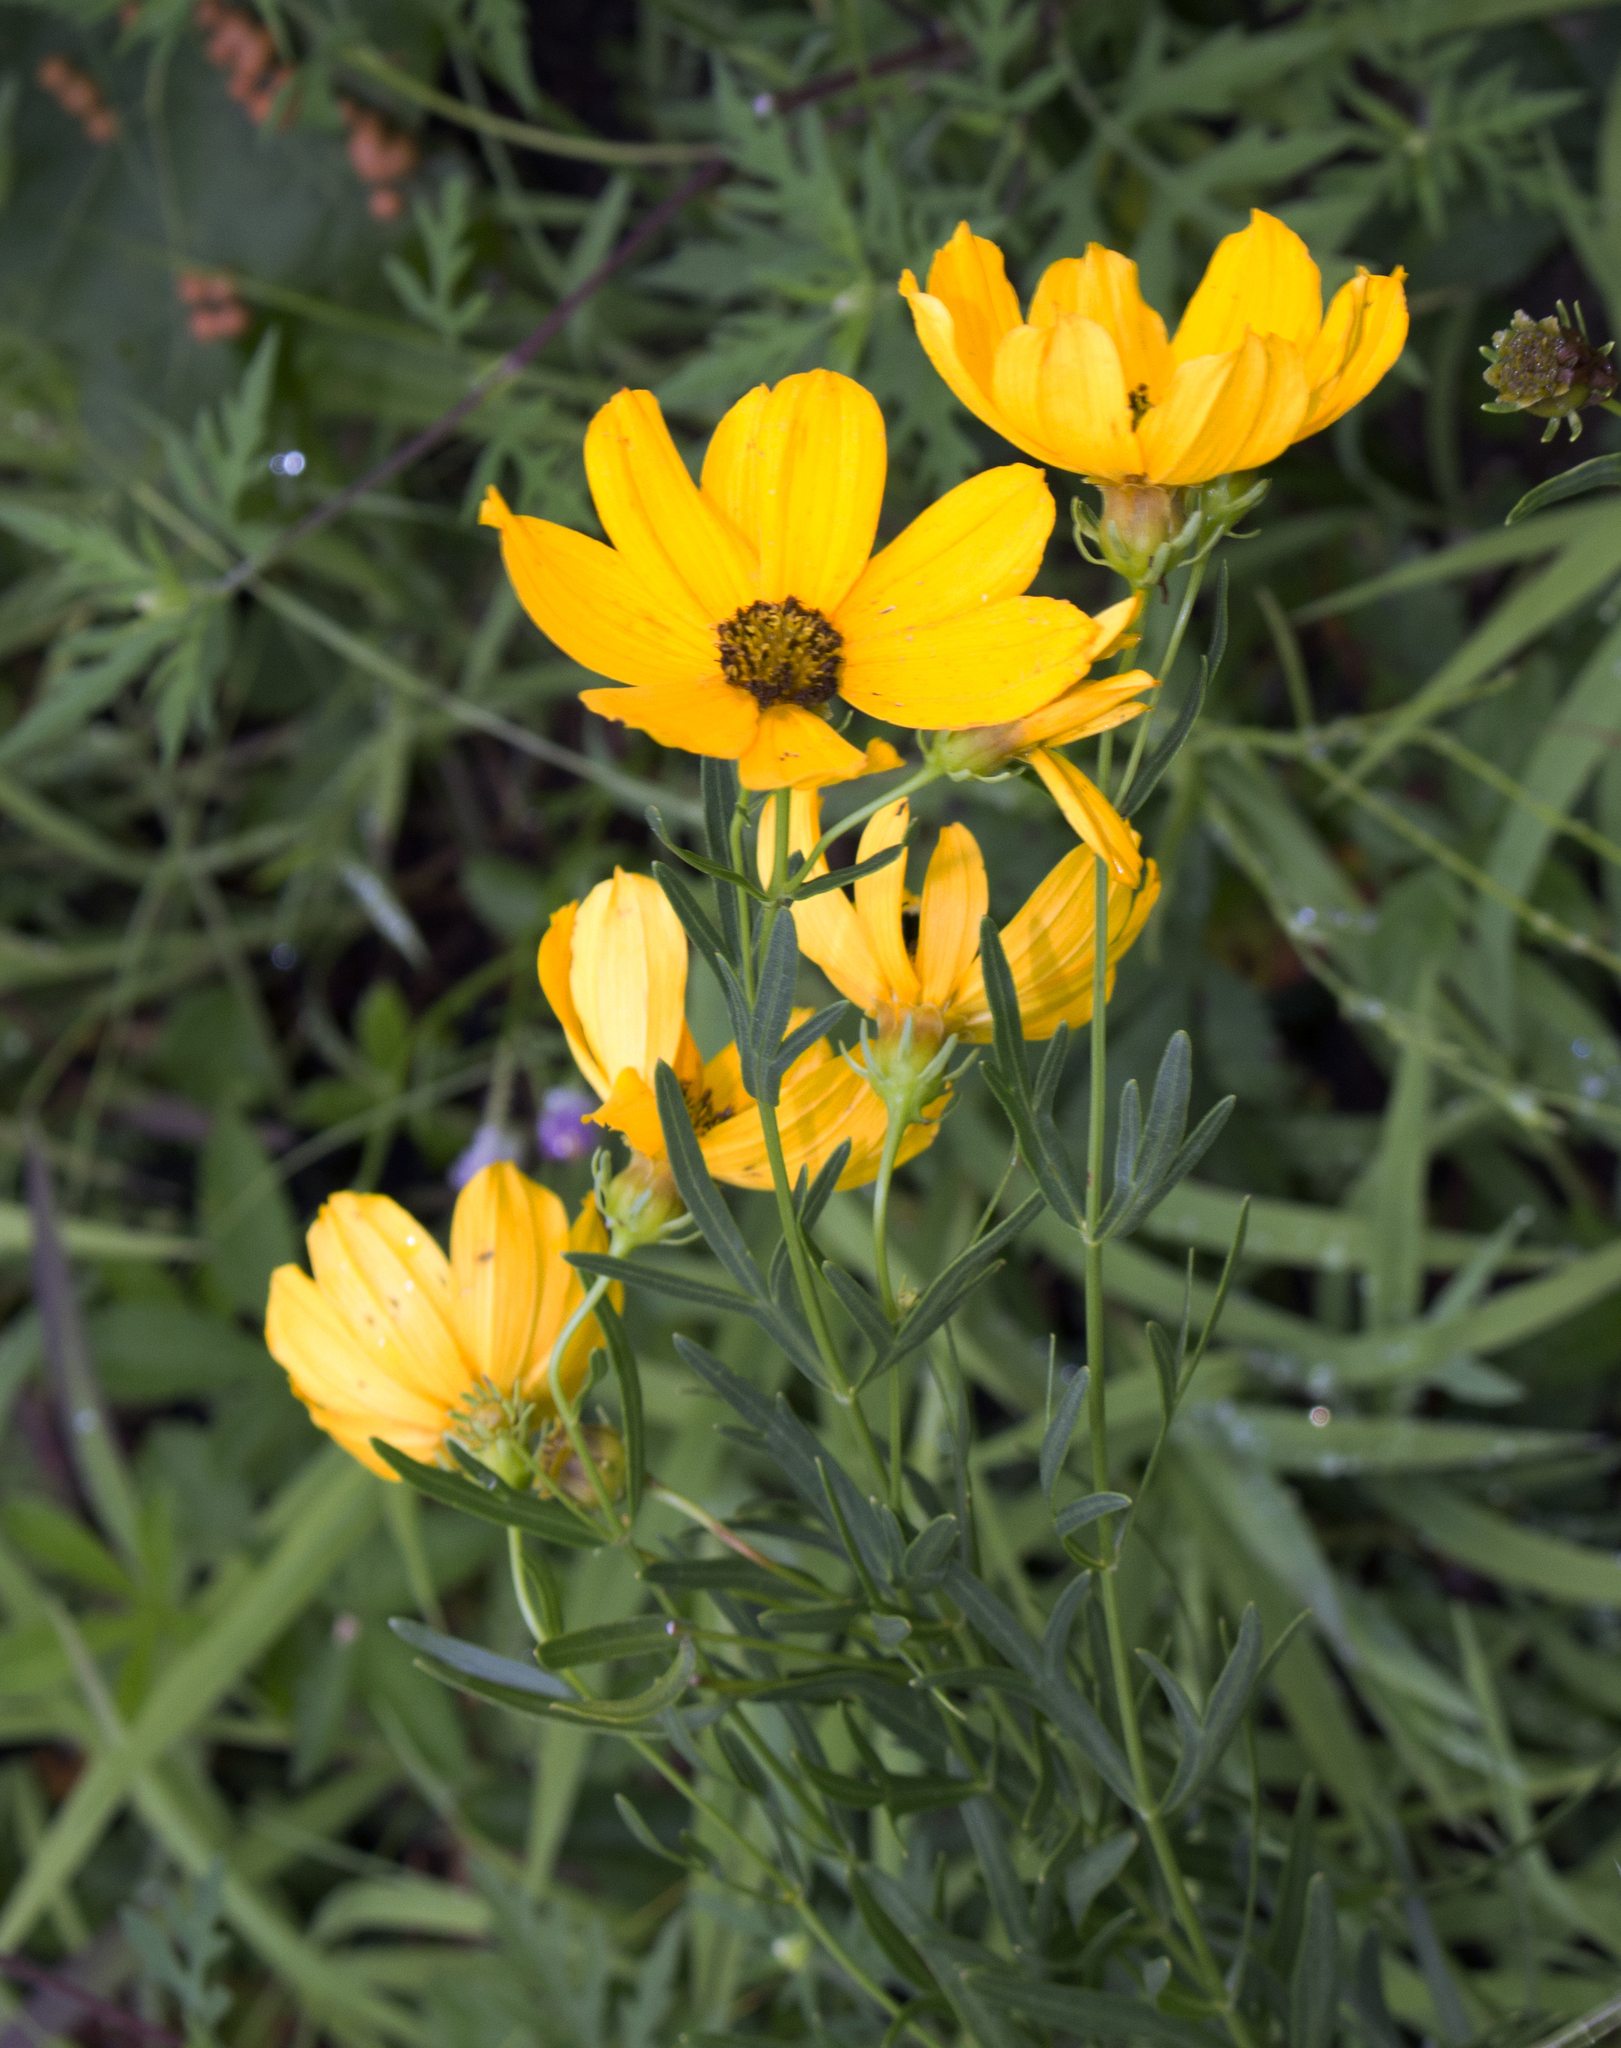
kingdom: Plantae
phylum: Tracheophyta
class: Magnoliopsida
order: Asterales
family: Asteraceae
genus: Coreopsis
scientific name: Coreopsis palmata
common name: Prairie coreopsis
